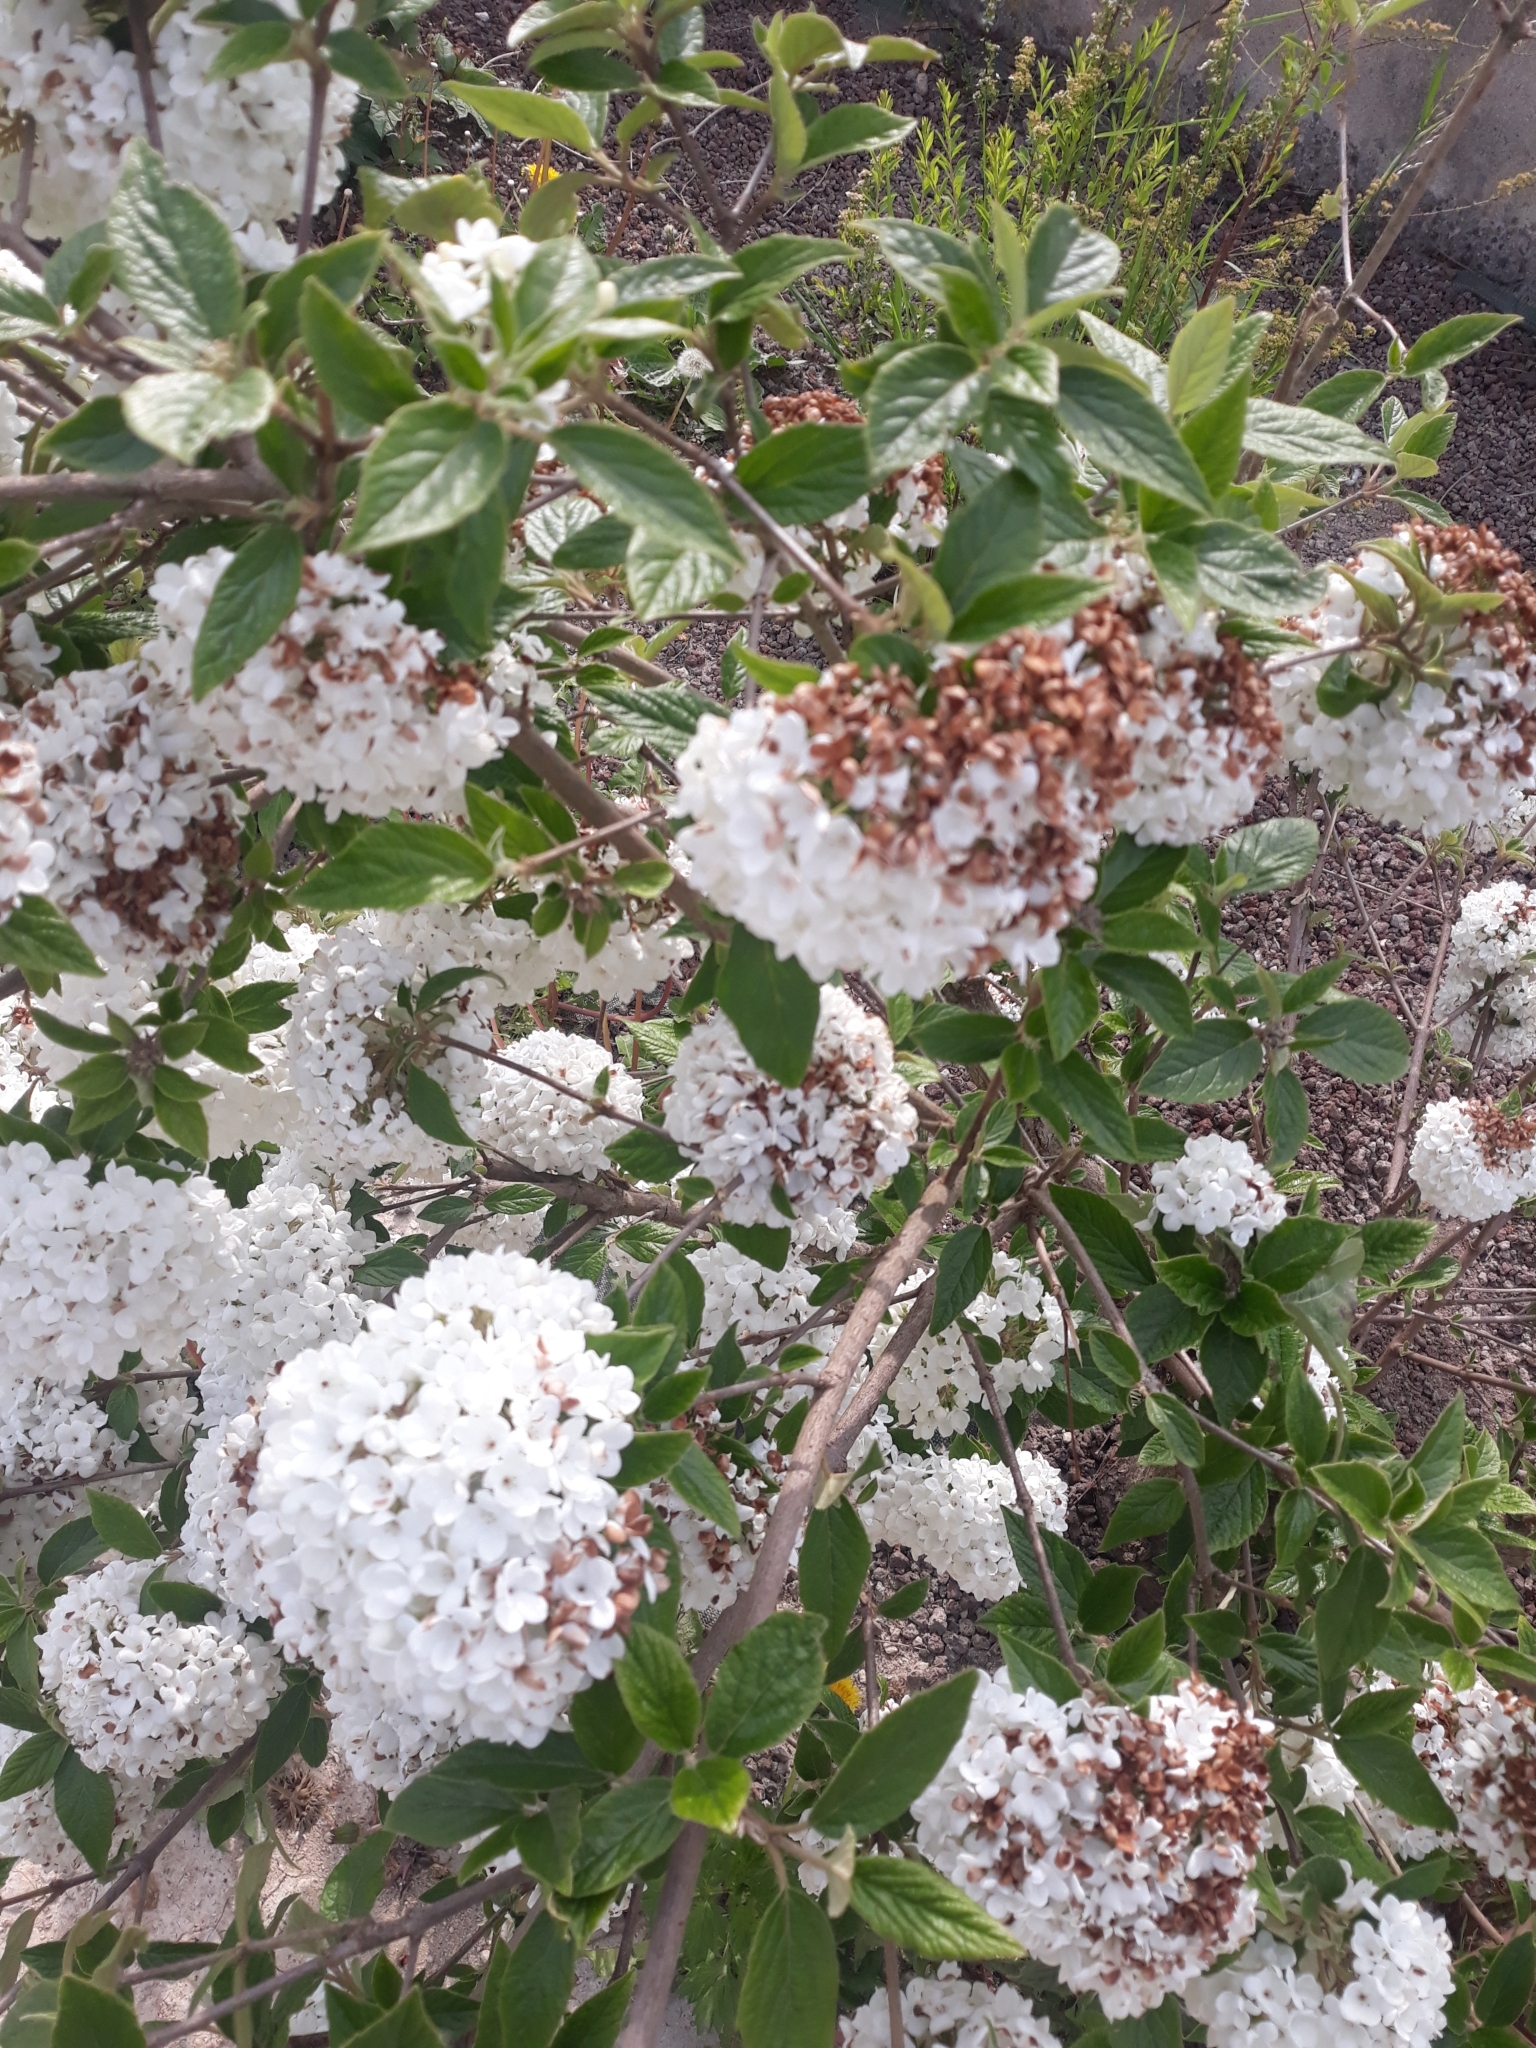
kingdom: Plantae
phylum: Tracheophyta
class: Magnoliopsida
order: Dipsacales
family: Viburnaceae
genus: Viburnum
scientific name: Viburnum burkwoodii
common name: Burkwood's viburnum
